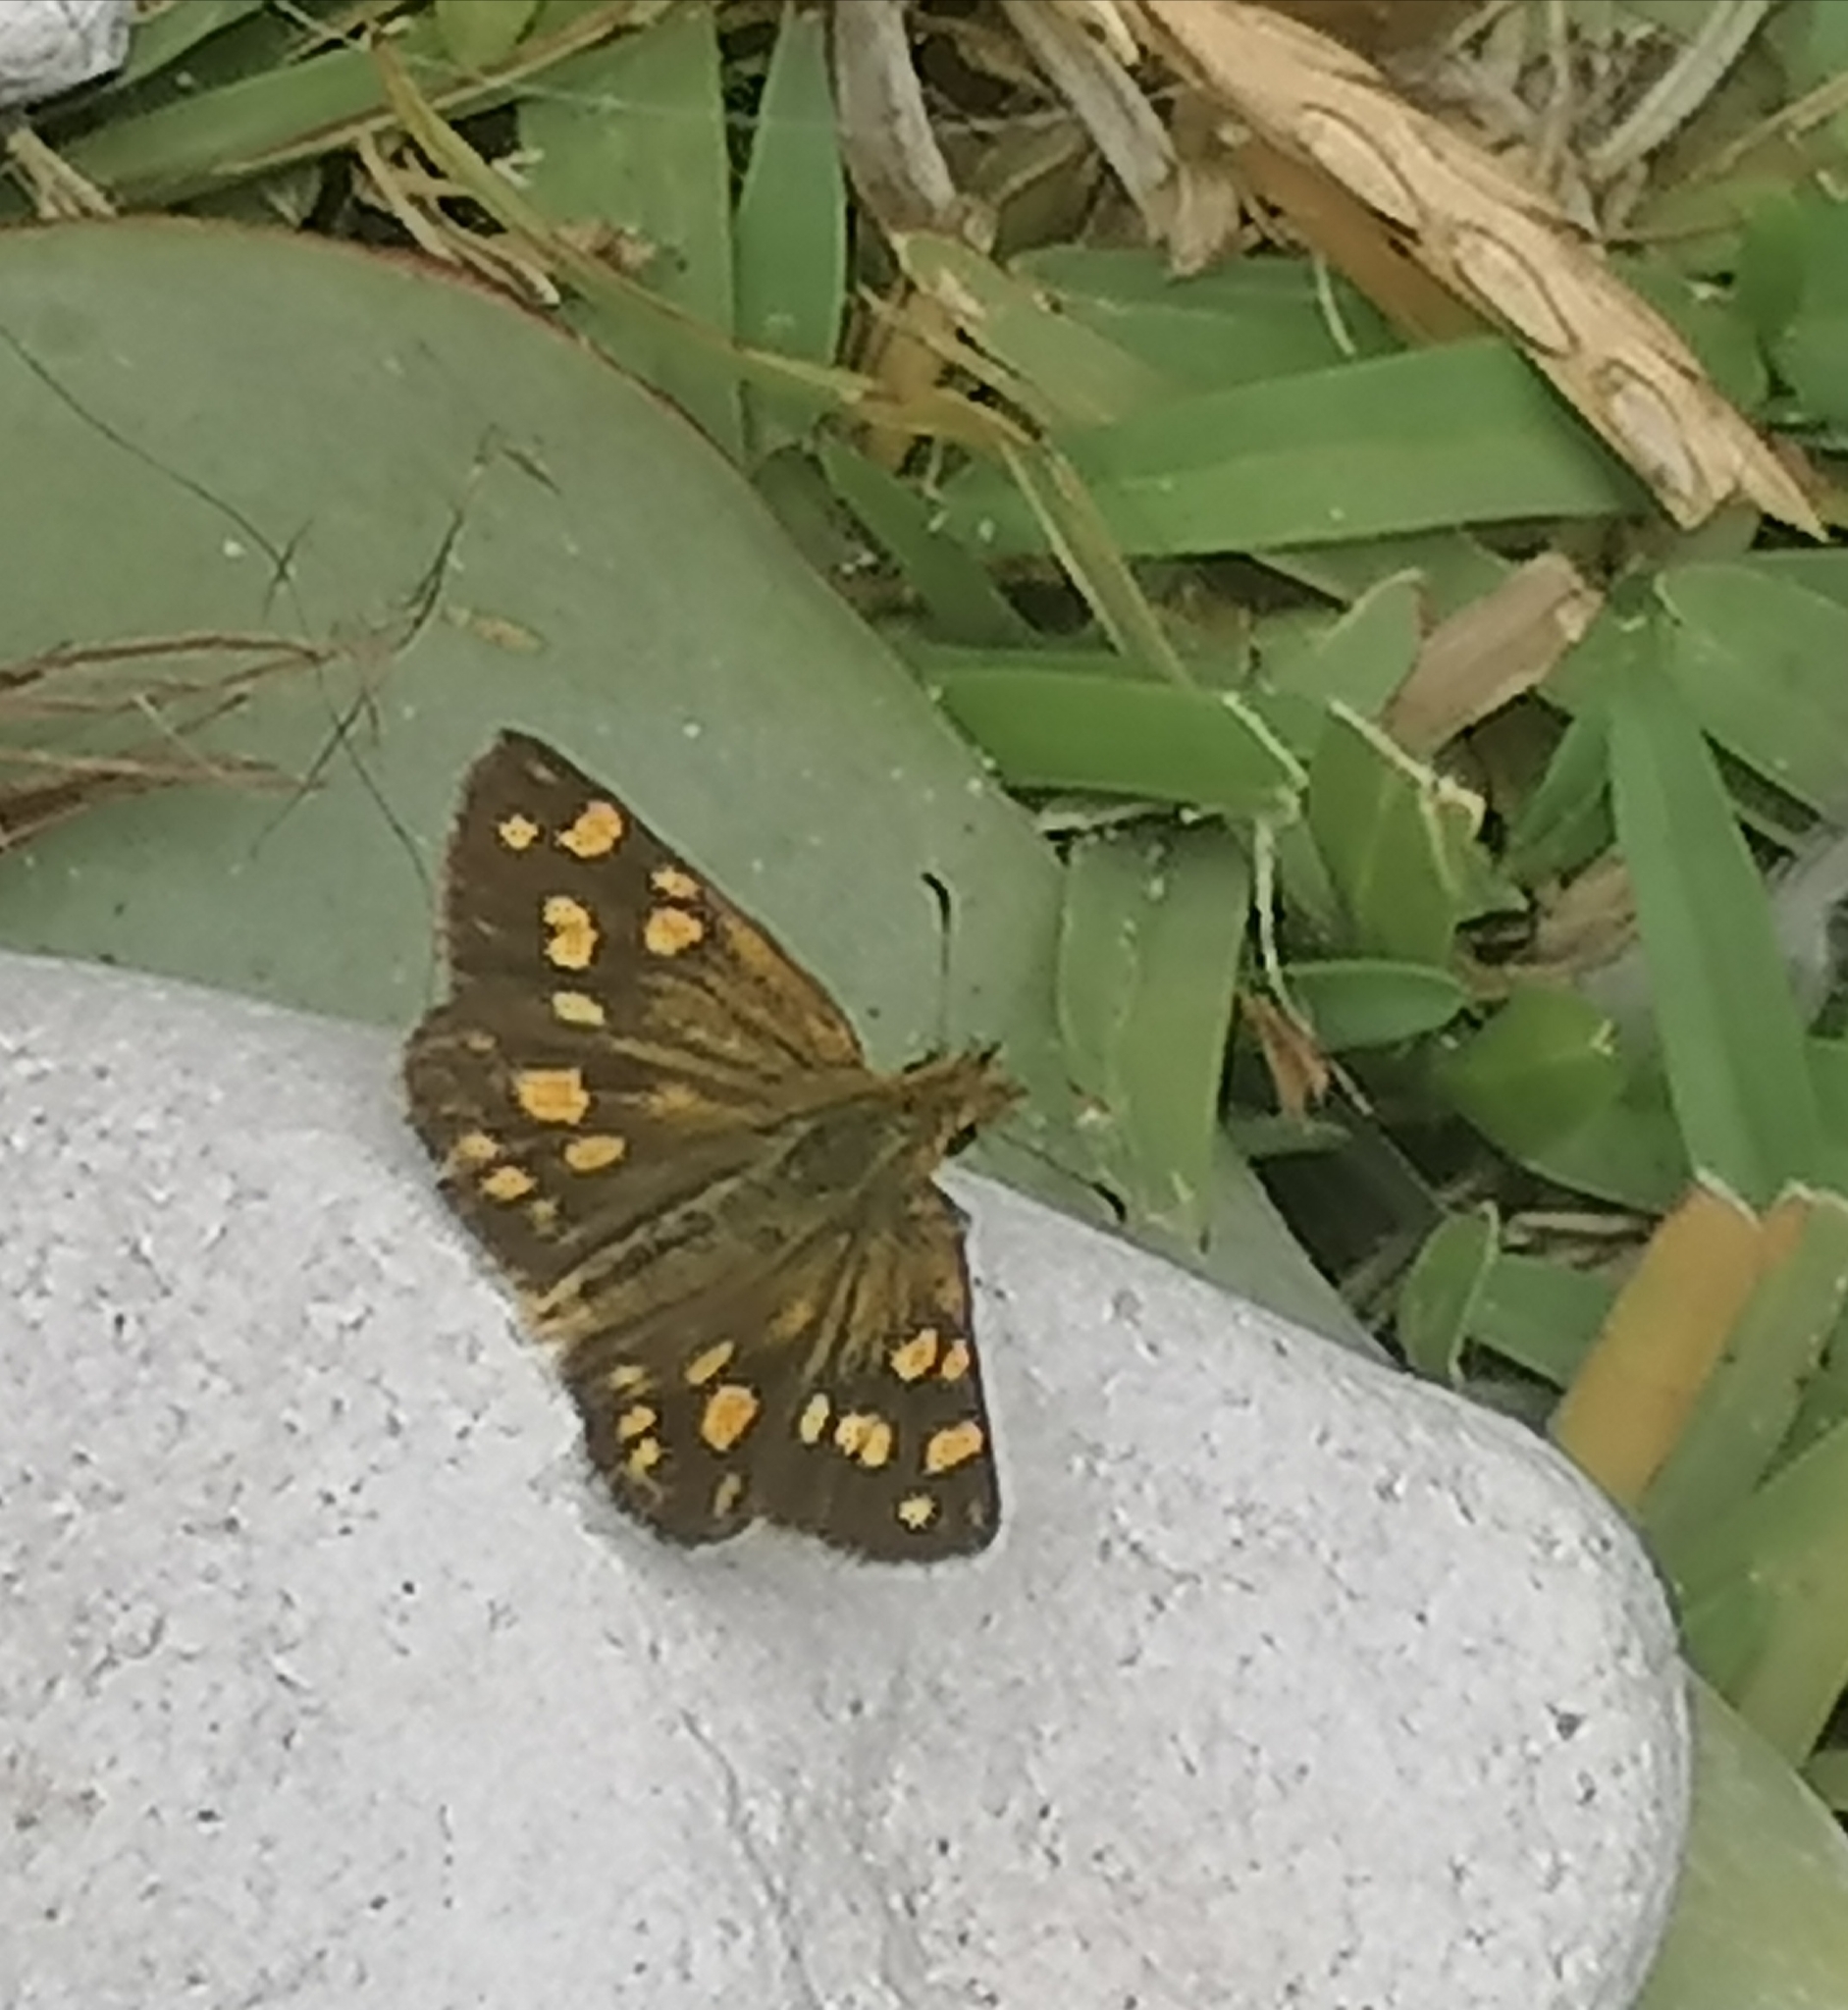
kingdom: Animalia
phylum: Arthropoda
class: Insecta
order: Lepidoptera
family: Hesperiidae
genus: Metisella
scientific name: Metisella metis
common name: Western gold-spotted sylph
